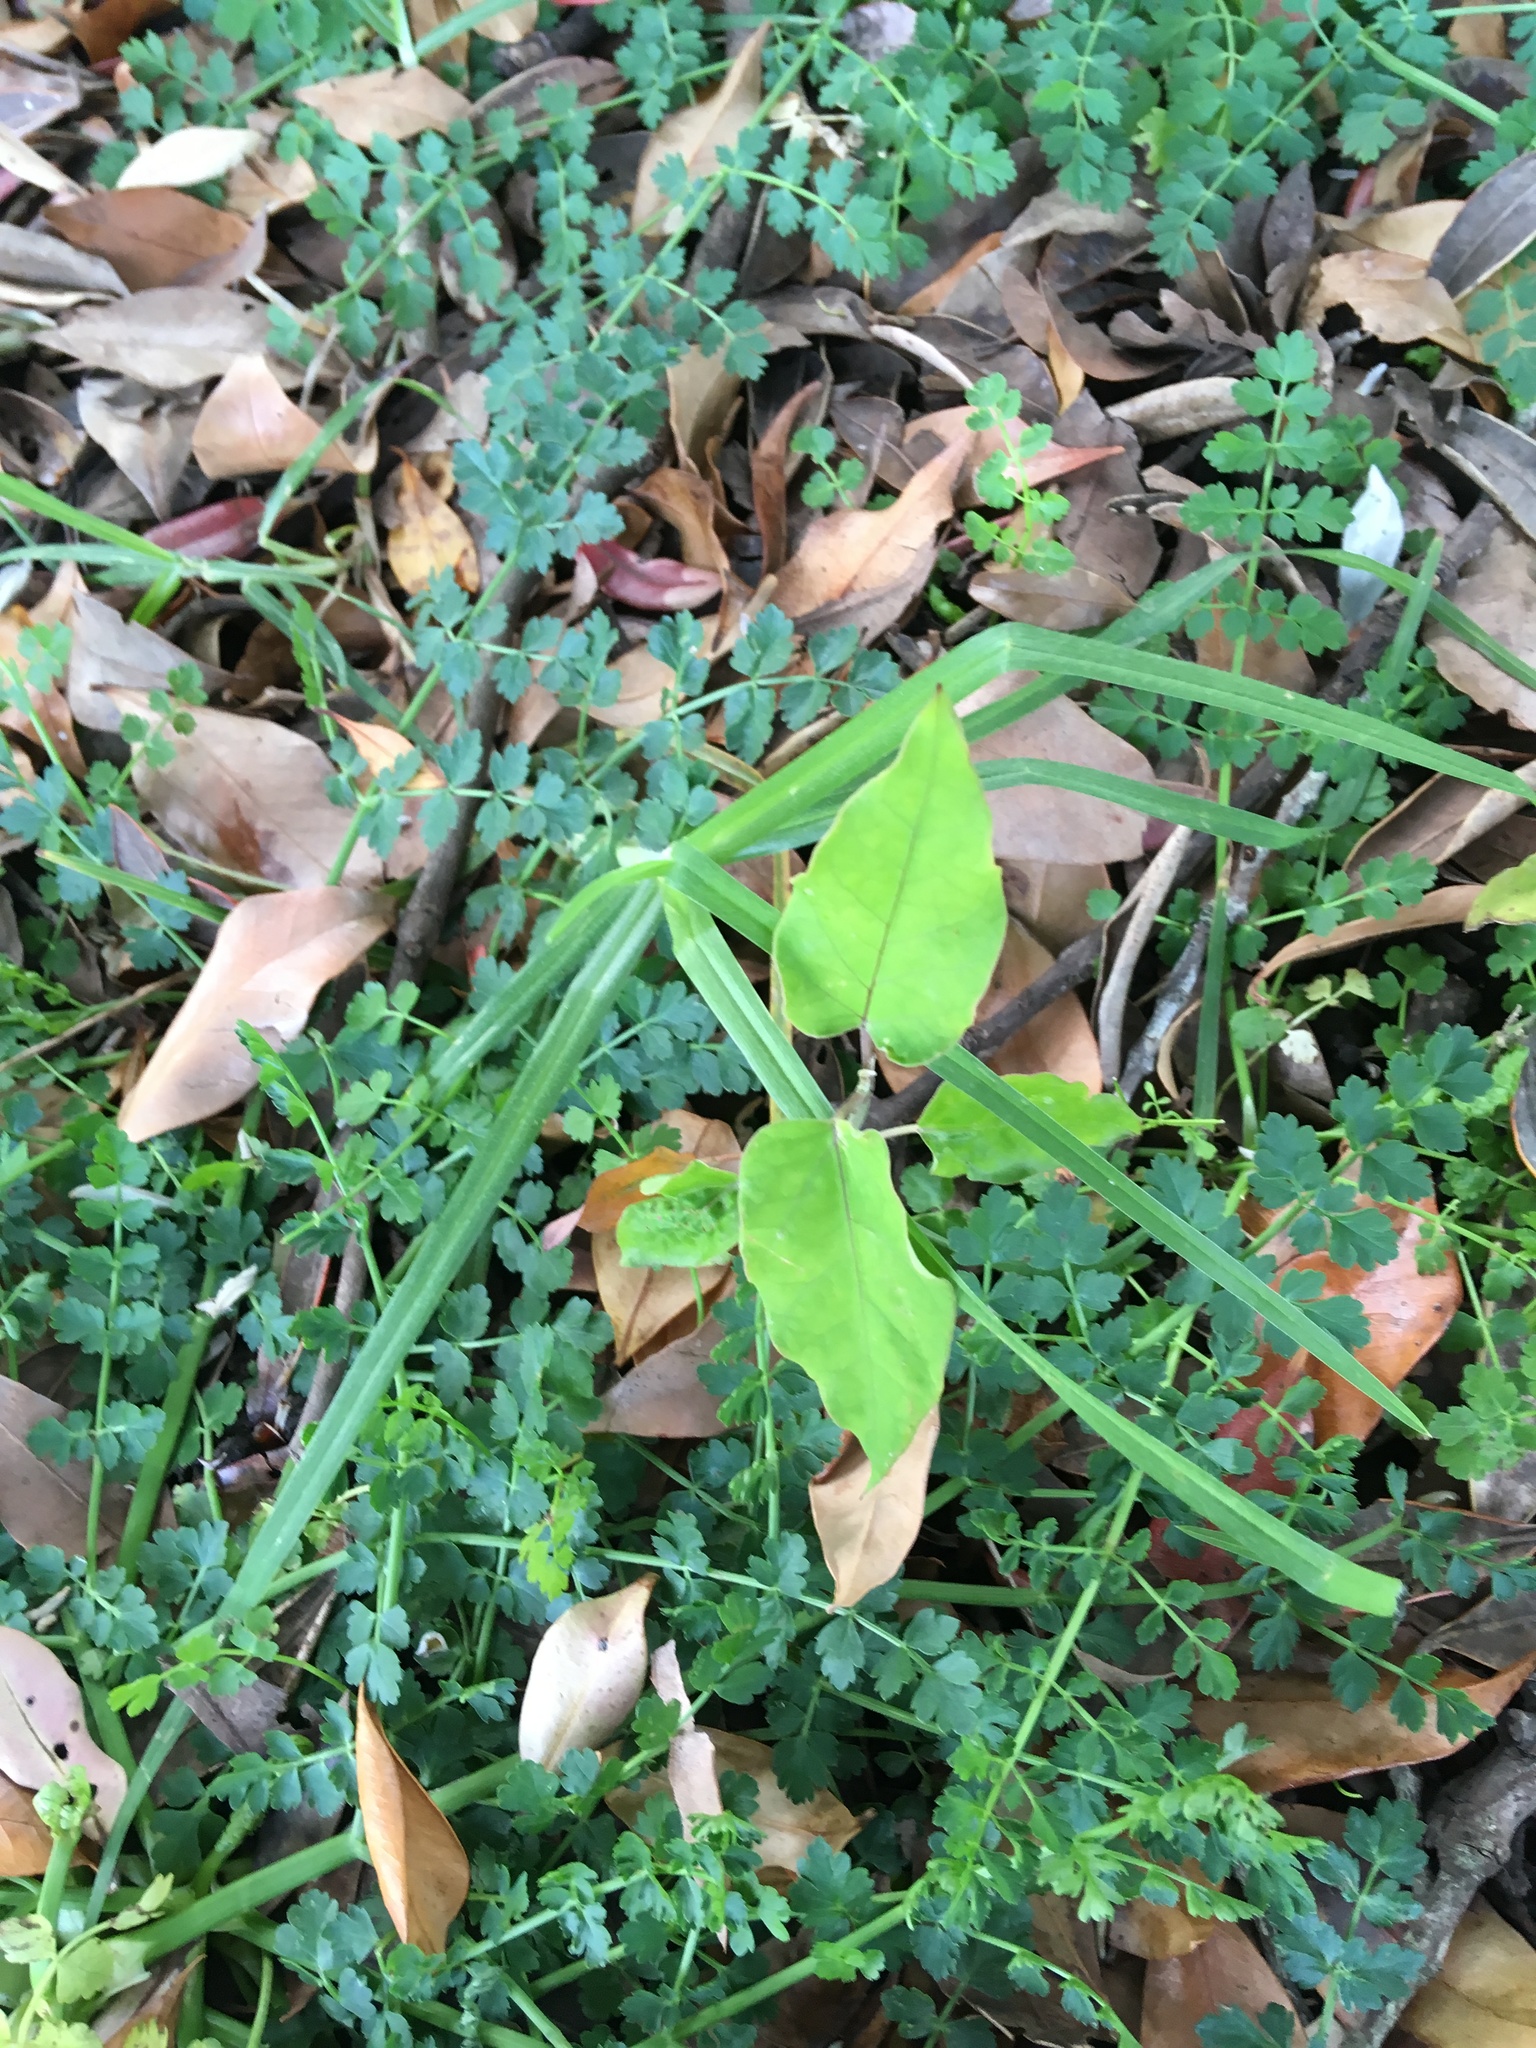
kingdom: Plantae
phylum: Tracheophyta
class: Magnoliopsida
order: Gentianales
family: Apocynaceae
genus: Araujia
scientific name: Araujia sericifera
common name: White bladderflower
